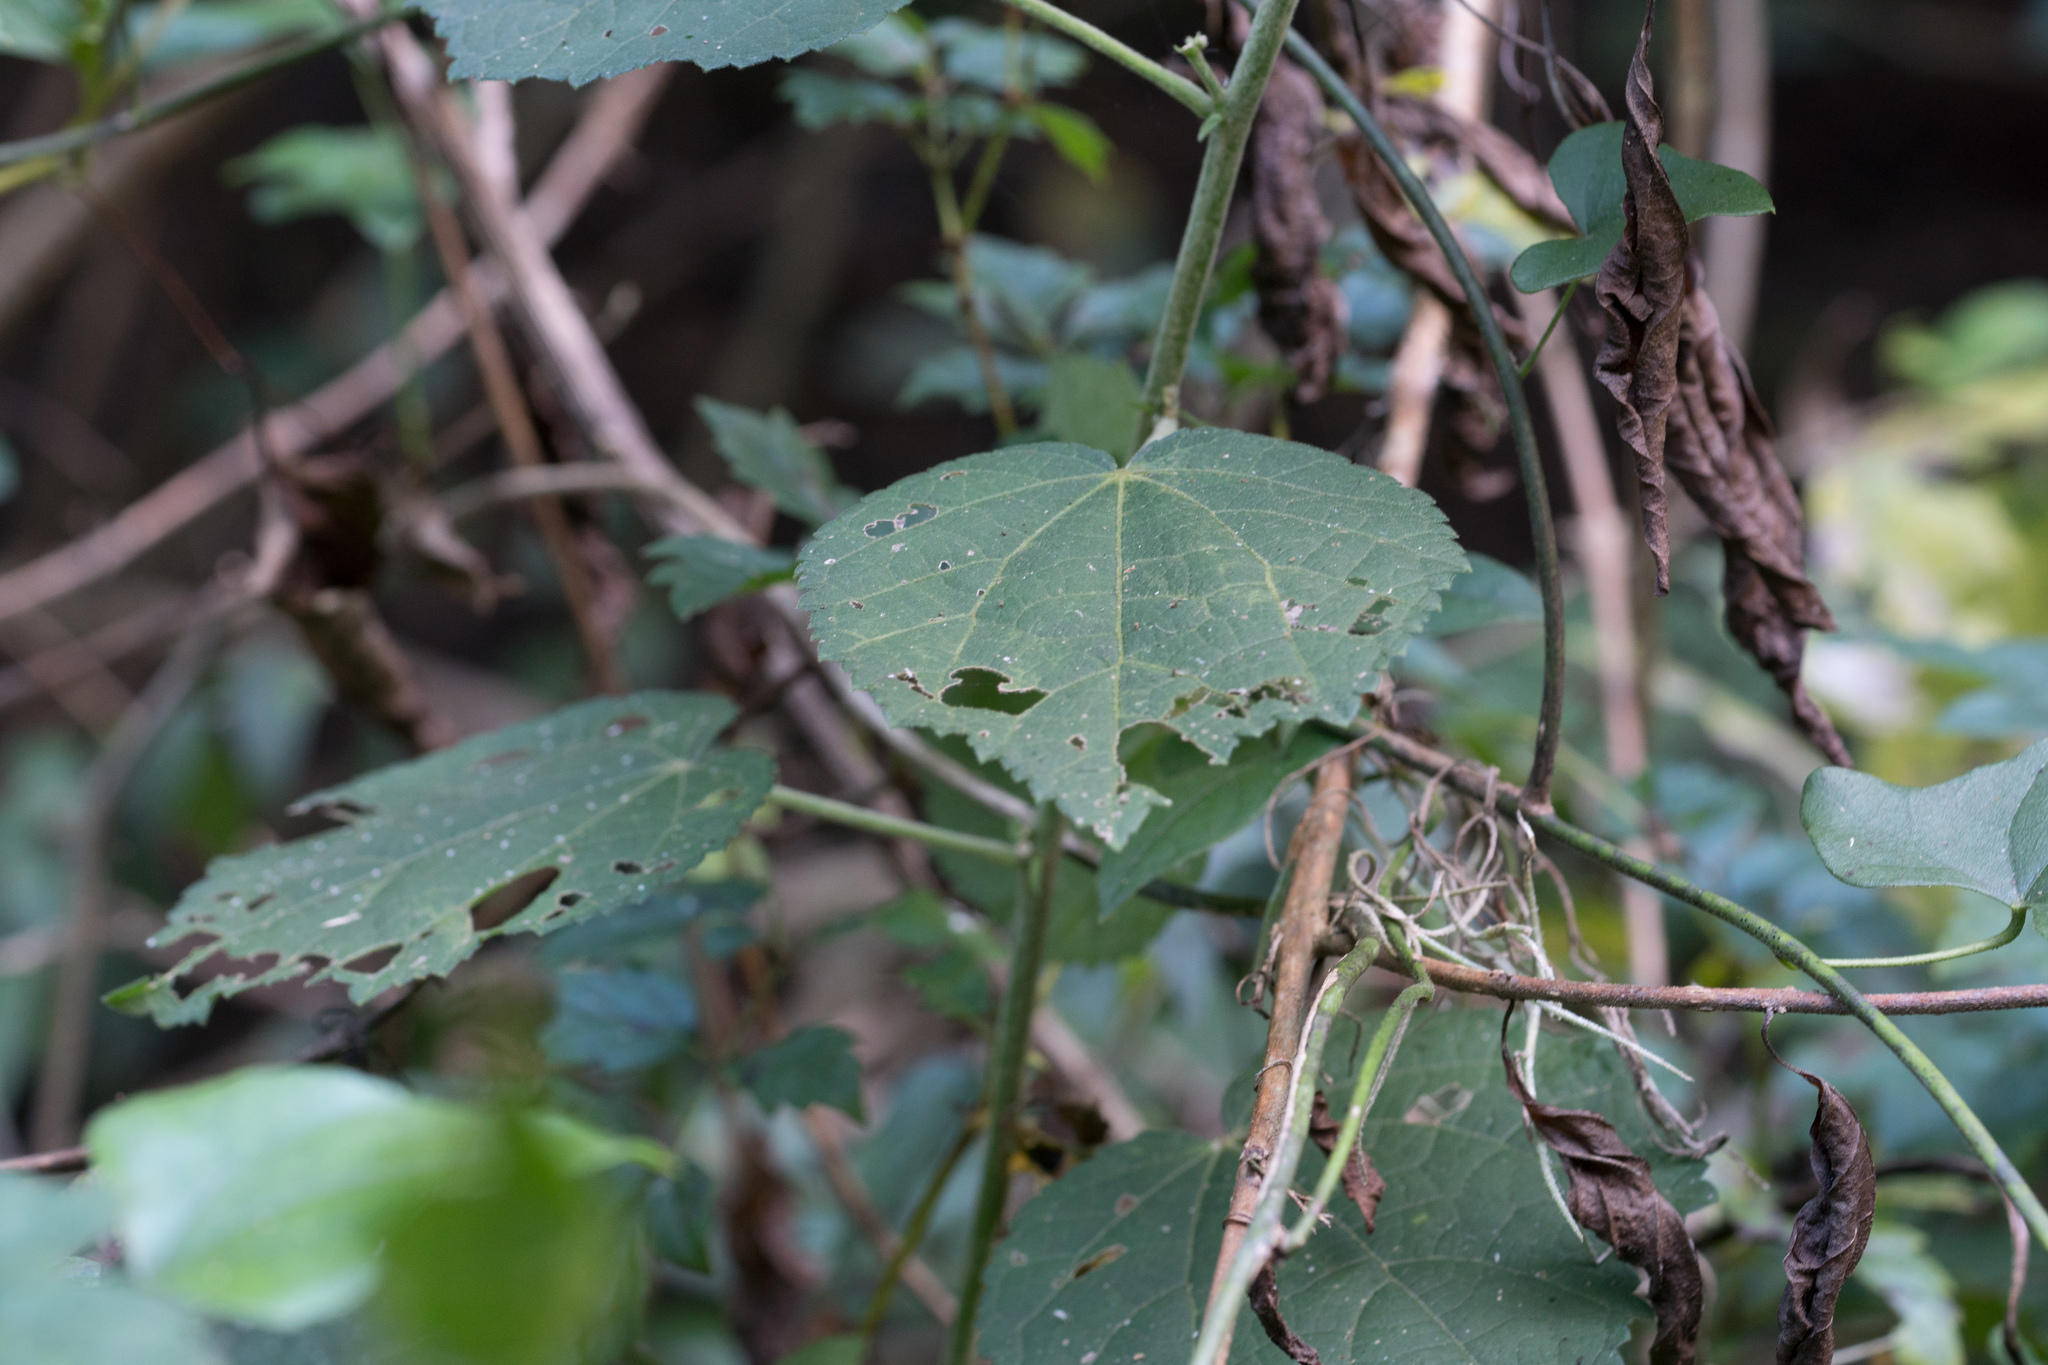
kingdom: Plantae
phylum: Tracheophyta
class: Magnoliopsida
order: Malvales
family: Malvaceae
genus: Malvaviscus
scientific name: Malvaviscus arboreus
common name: Wax mallow
